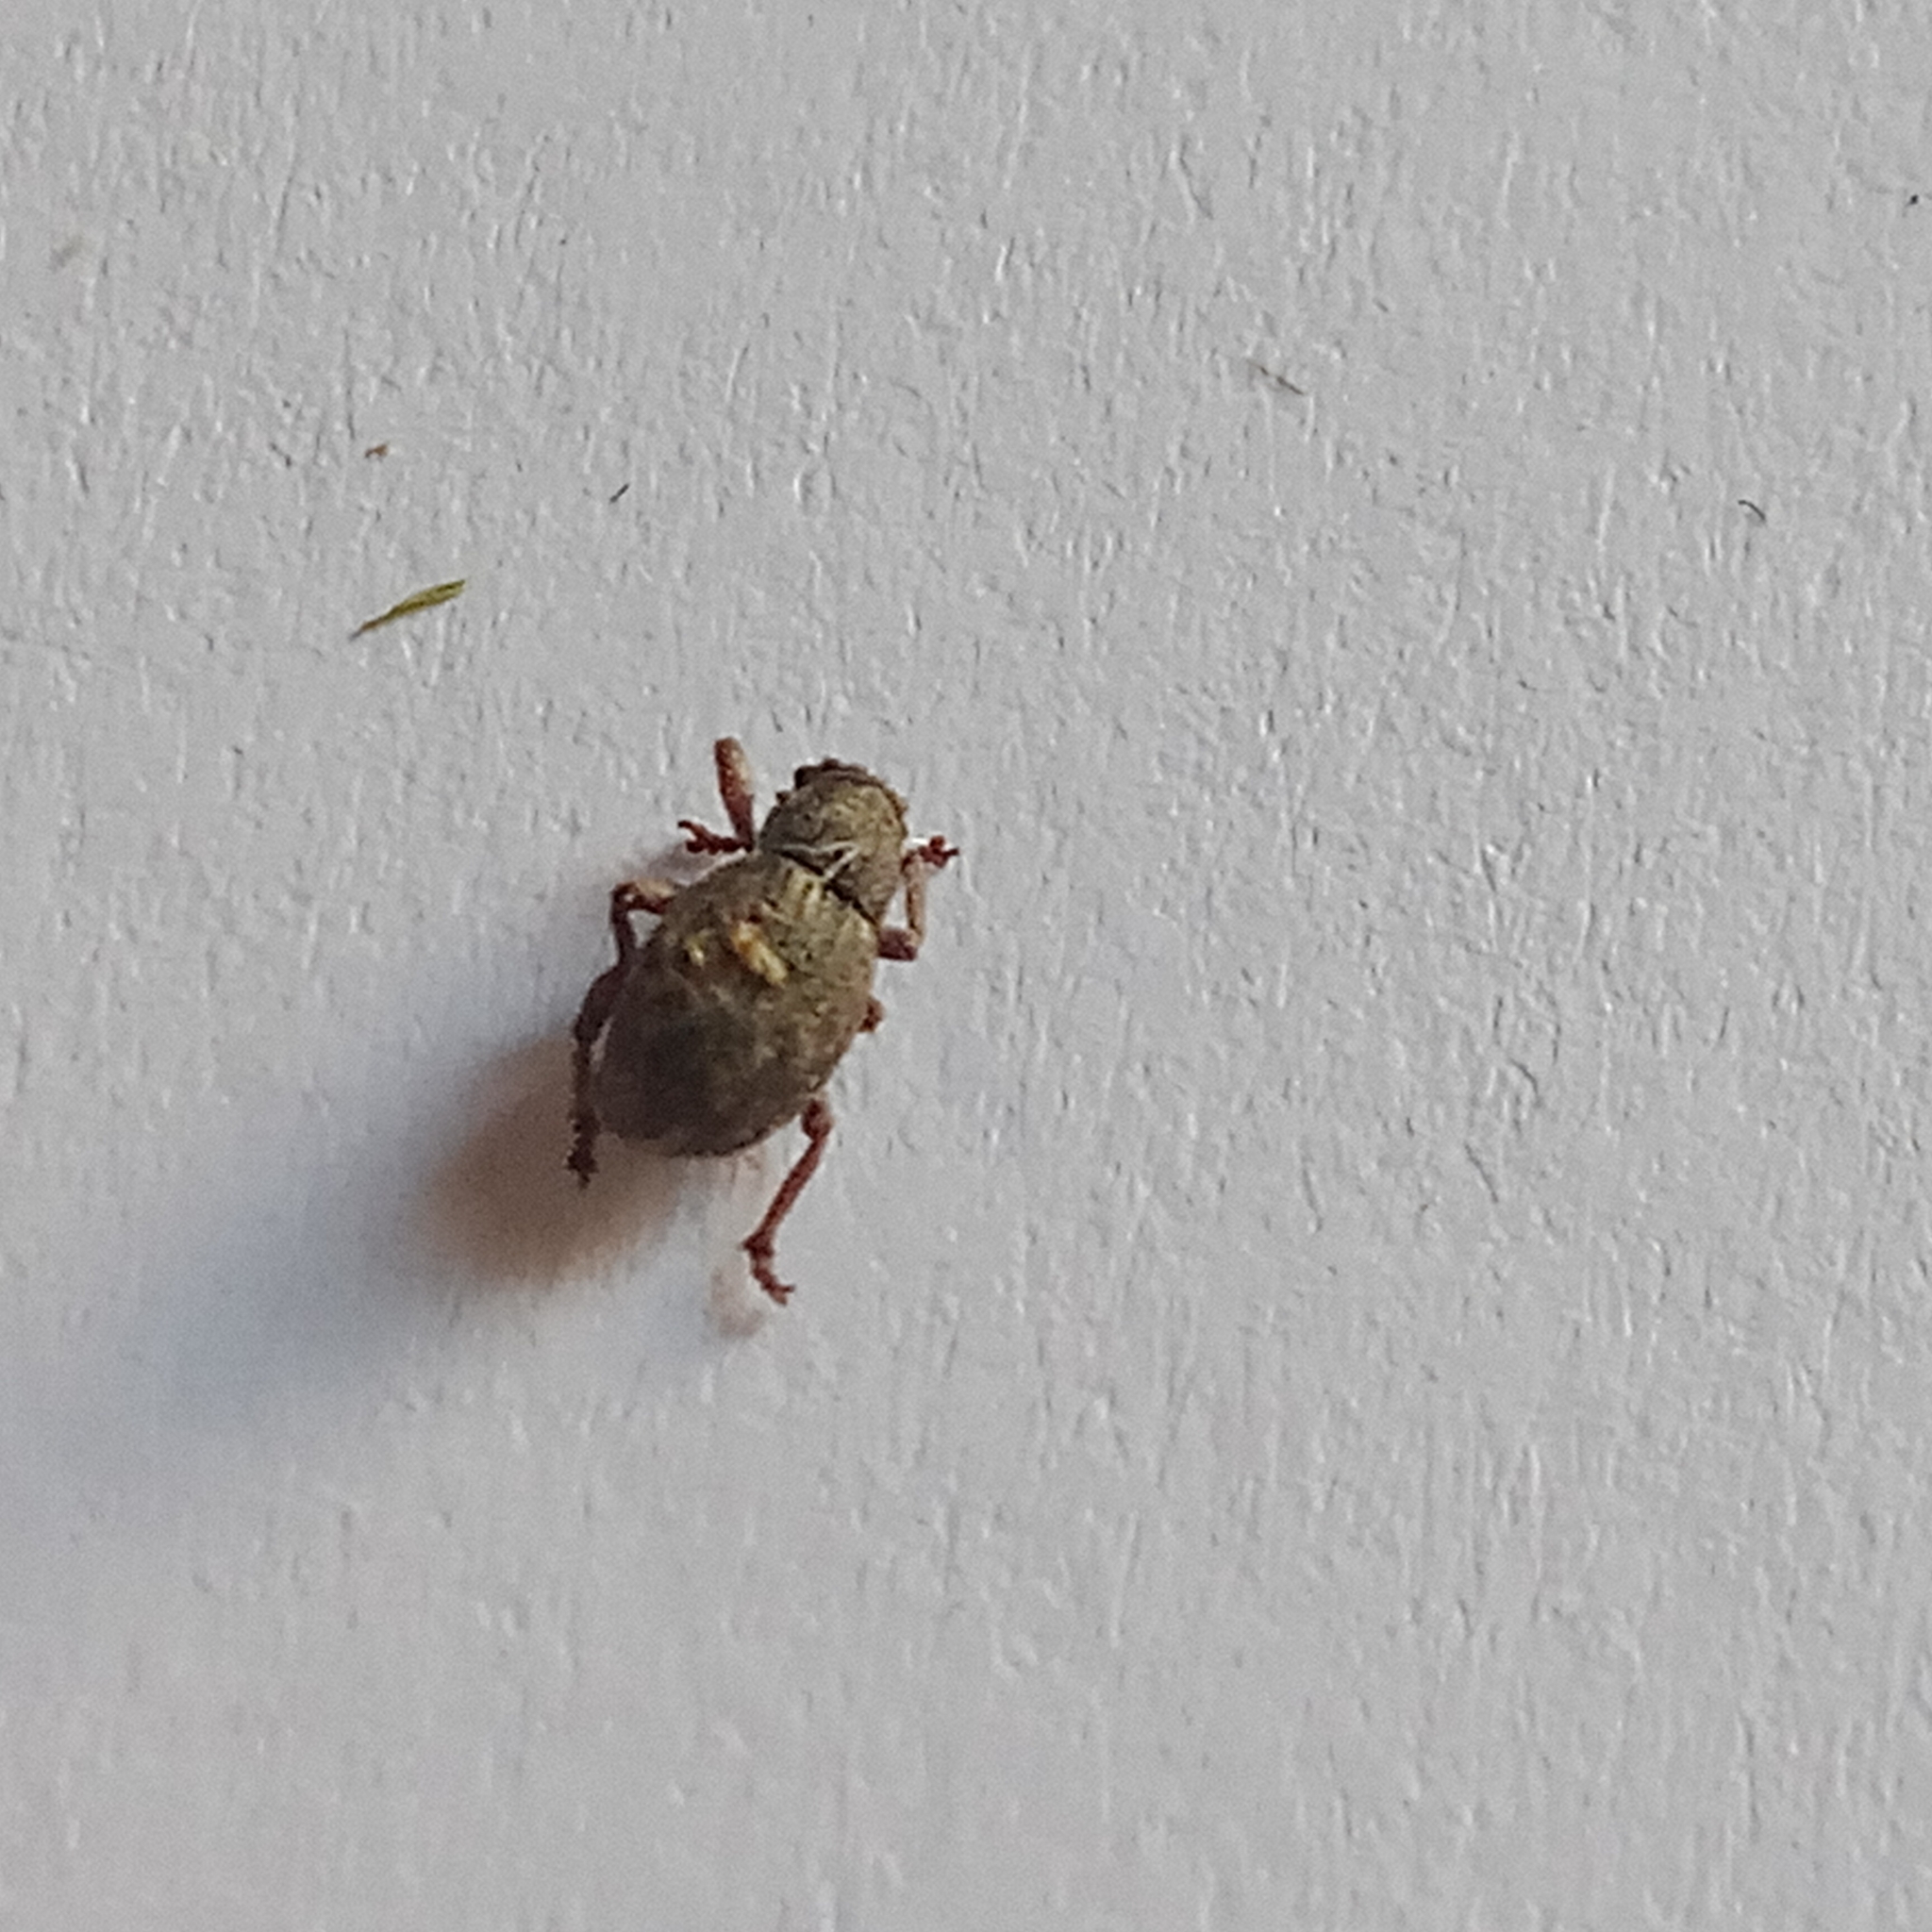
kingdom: Animalia
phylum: Arthropoda
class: Insecta
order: Coleoptera
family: Curculionidae
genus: Strophosoma
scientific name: Strophosoma capitatum
